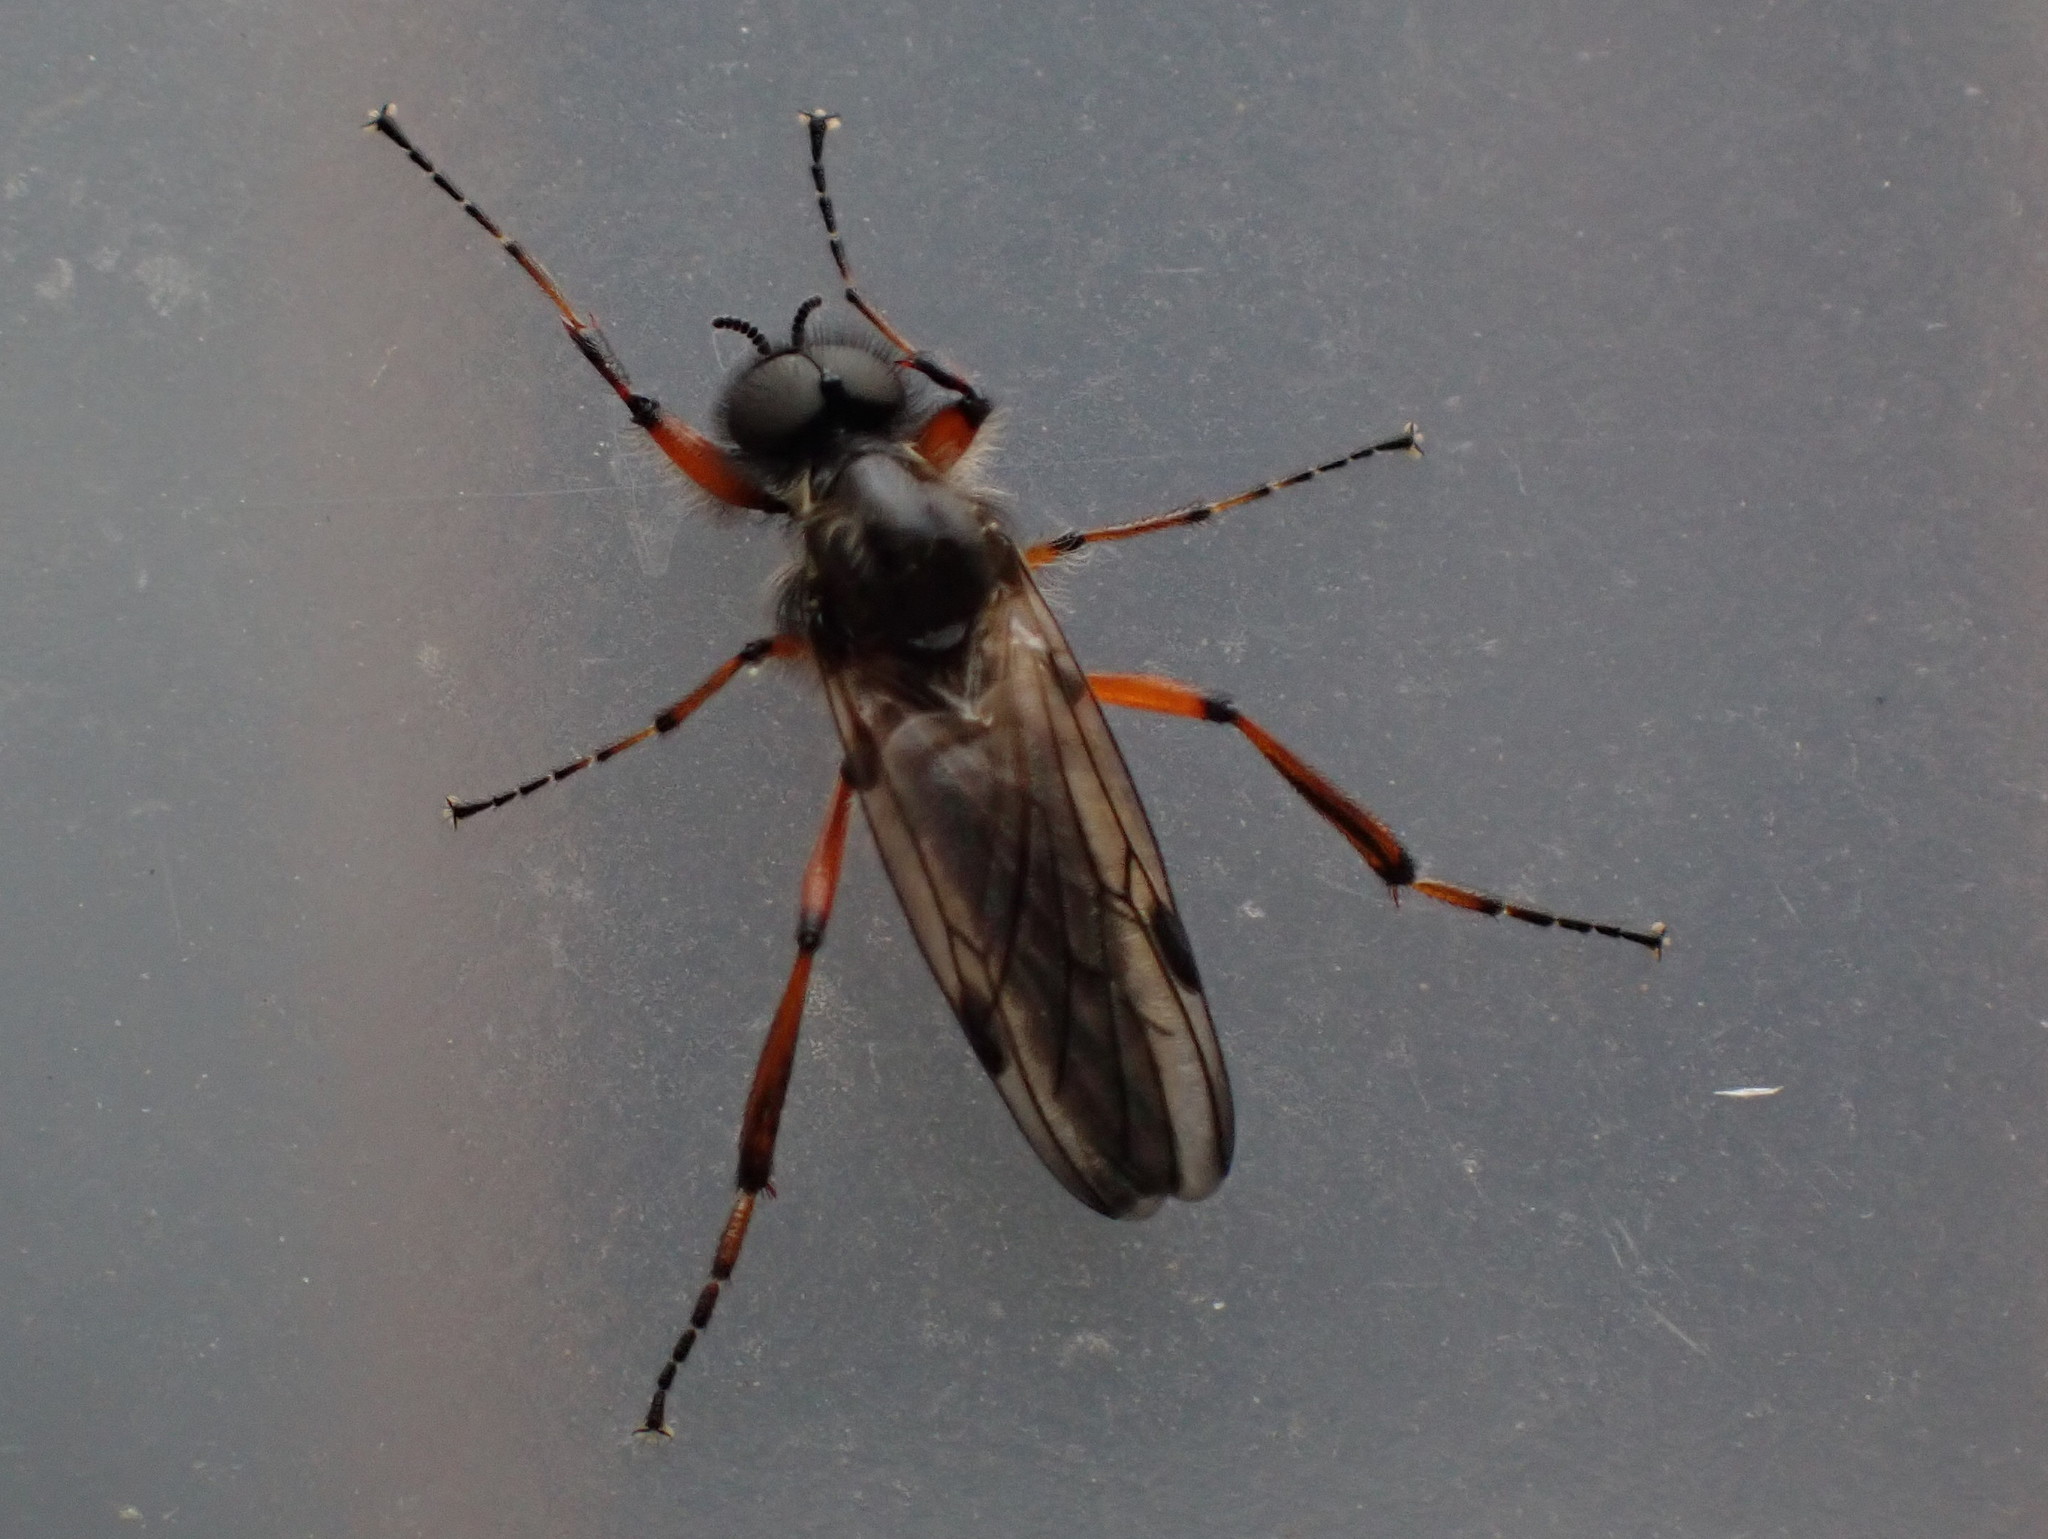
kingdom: Animalia
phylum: Arthropoda
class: Insecta
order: Diptera
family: Bibionidae
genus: Bibio
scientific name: Bibio xanthopus
